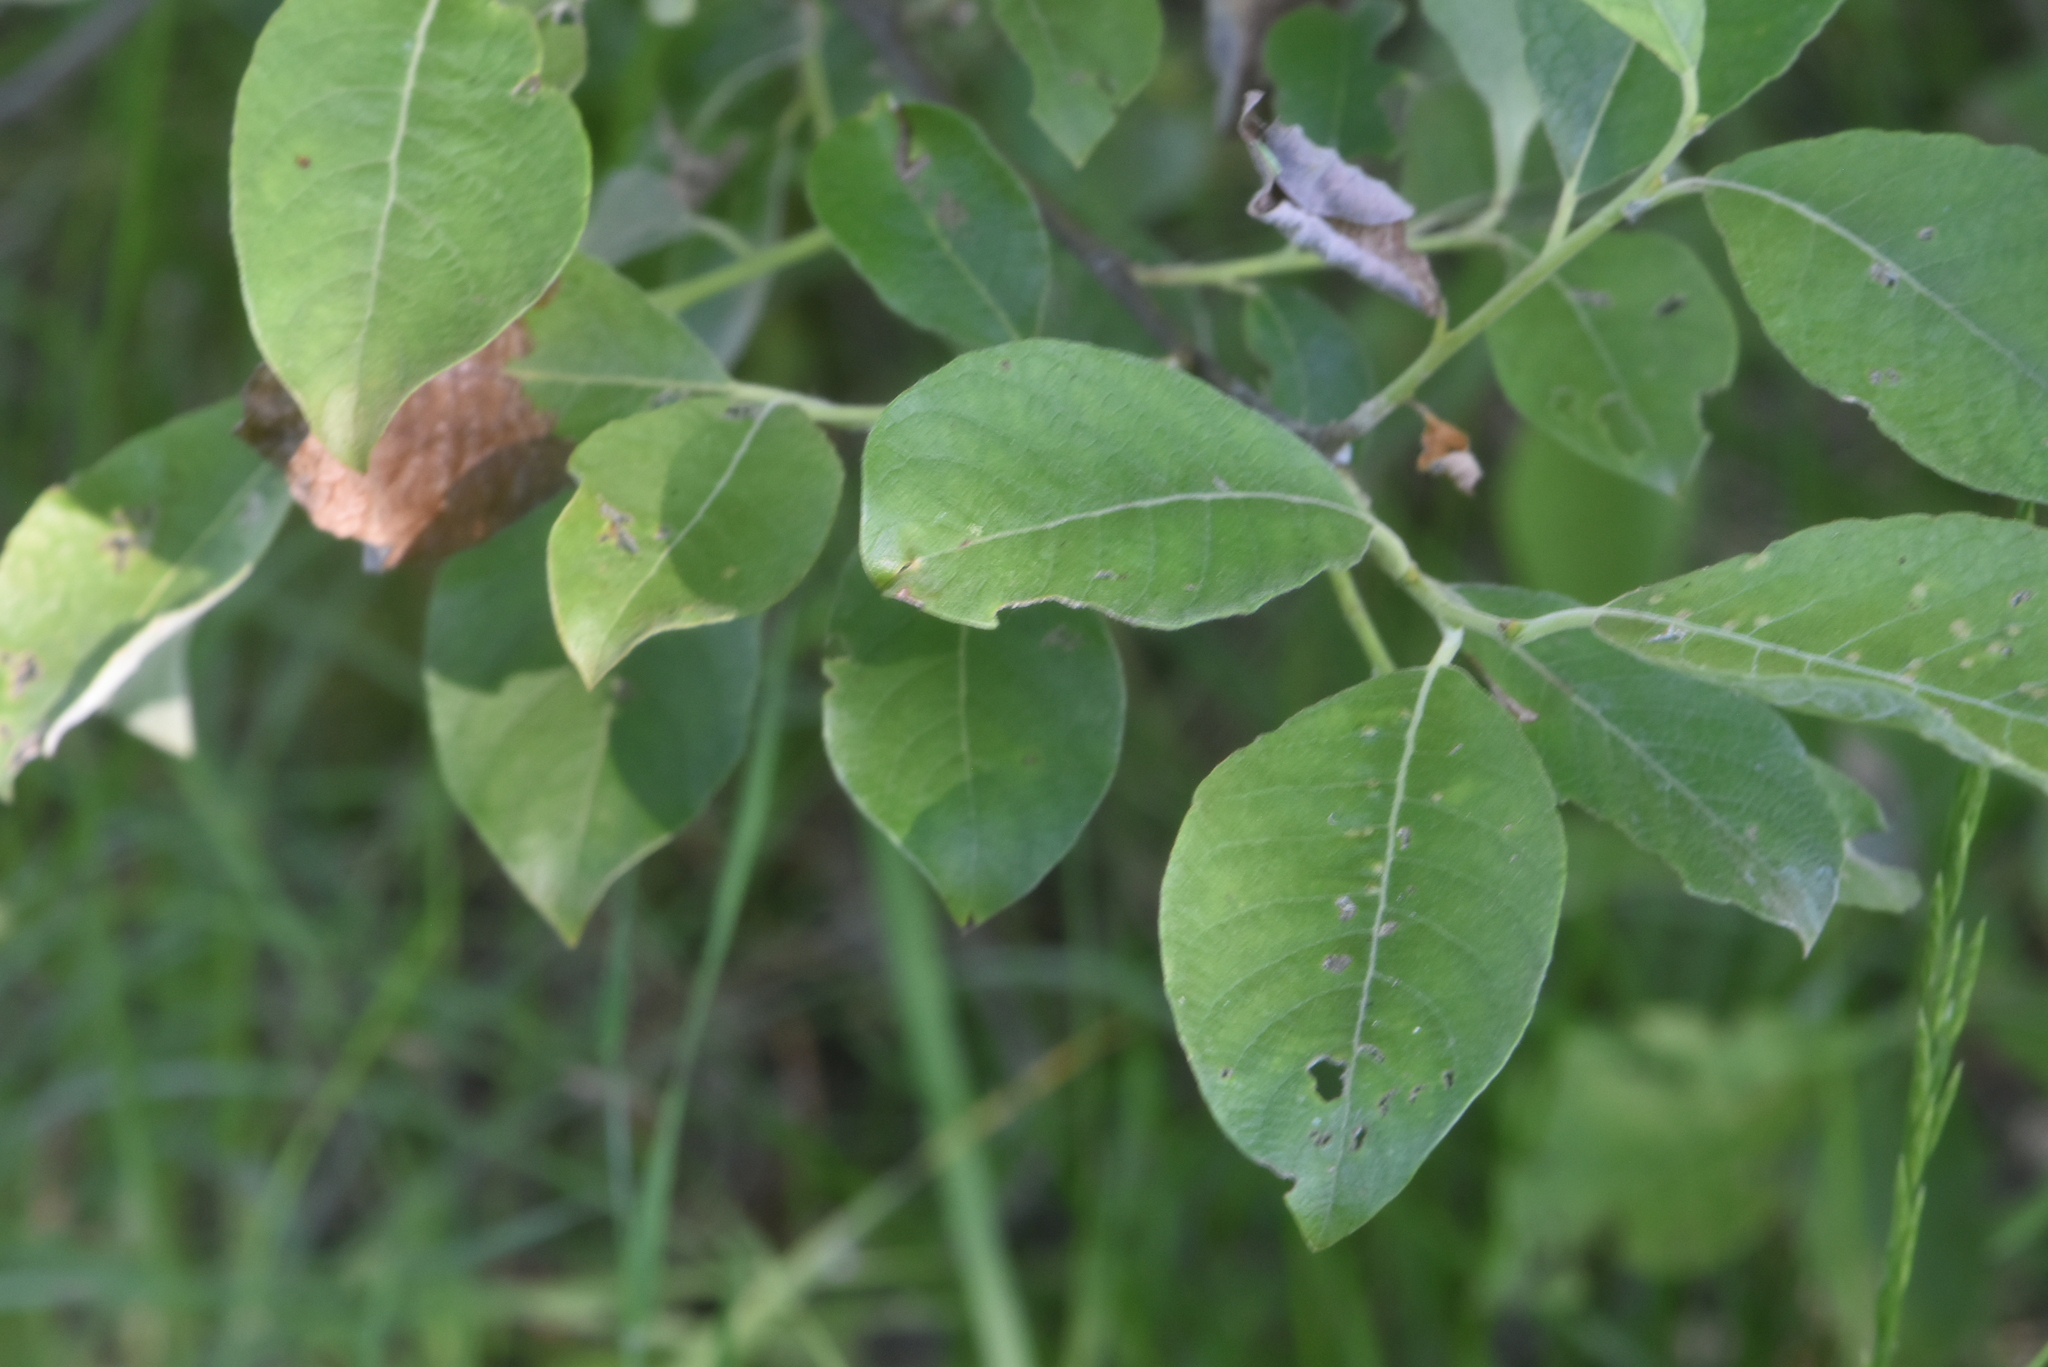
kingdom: Plantae
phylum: Tracheophyta
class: Magnoliopsida
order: Malpighiales
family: Salicaceae
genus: Salix
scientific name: Salix caprea
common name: Goat willow
